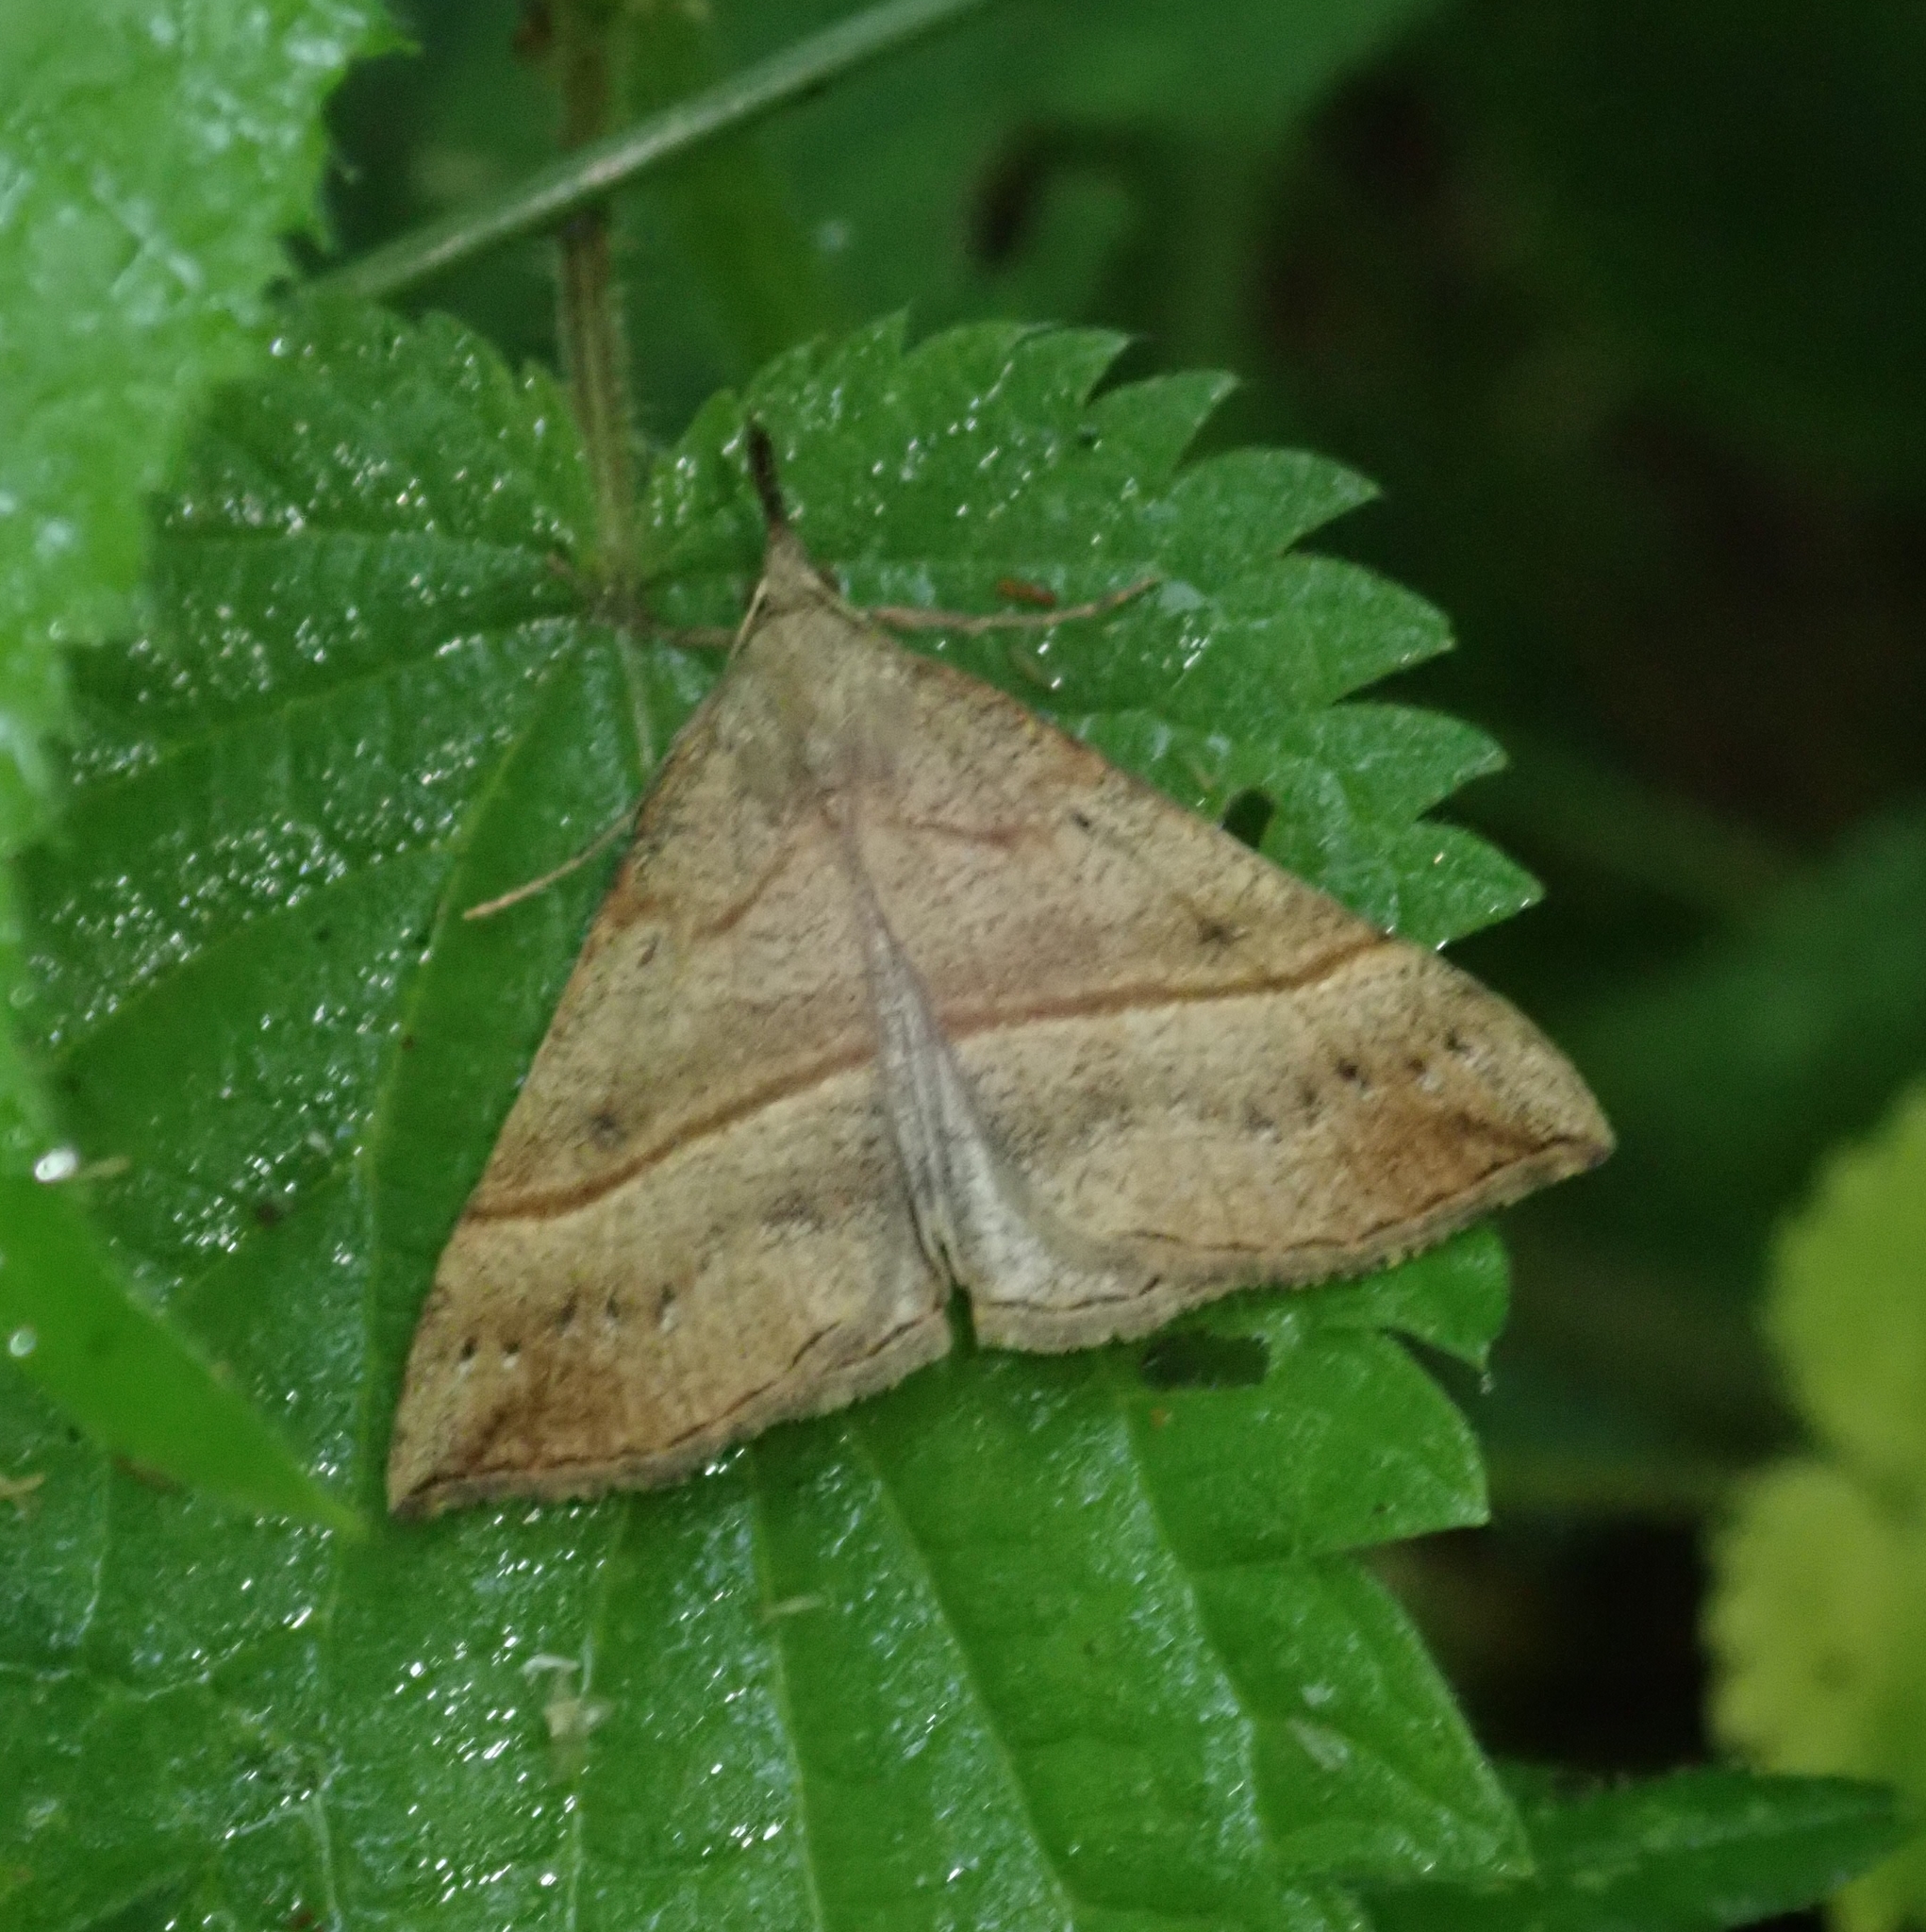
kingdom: Animalia
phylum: Arthropoda
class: Insecta
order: Lepidoptera
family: Erebidae
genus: Hypena
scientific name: Hypena proboscidalis
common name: Snout
